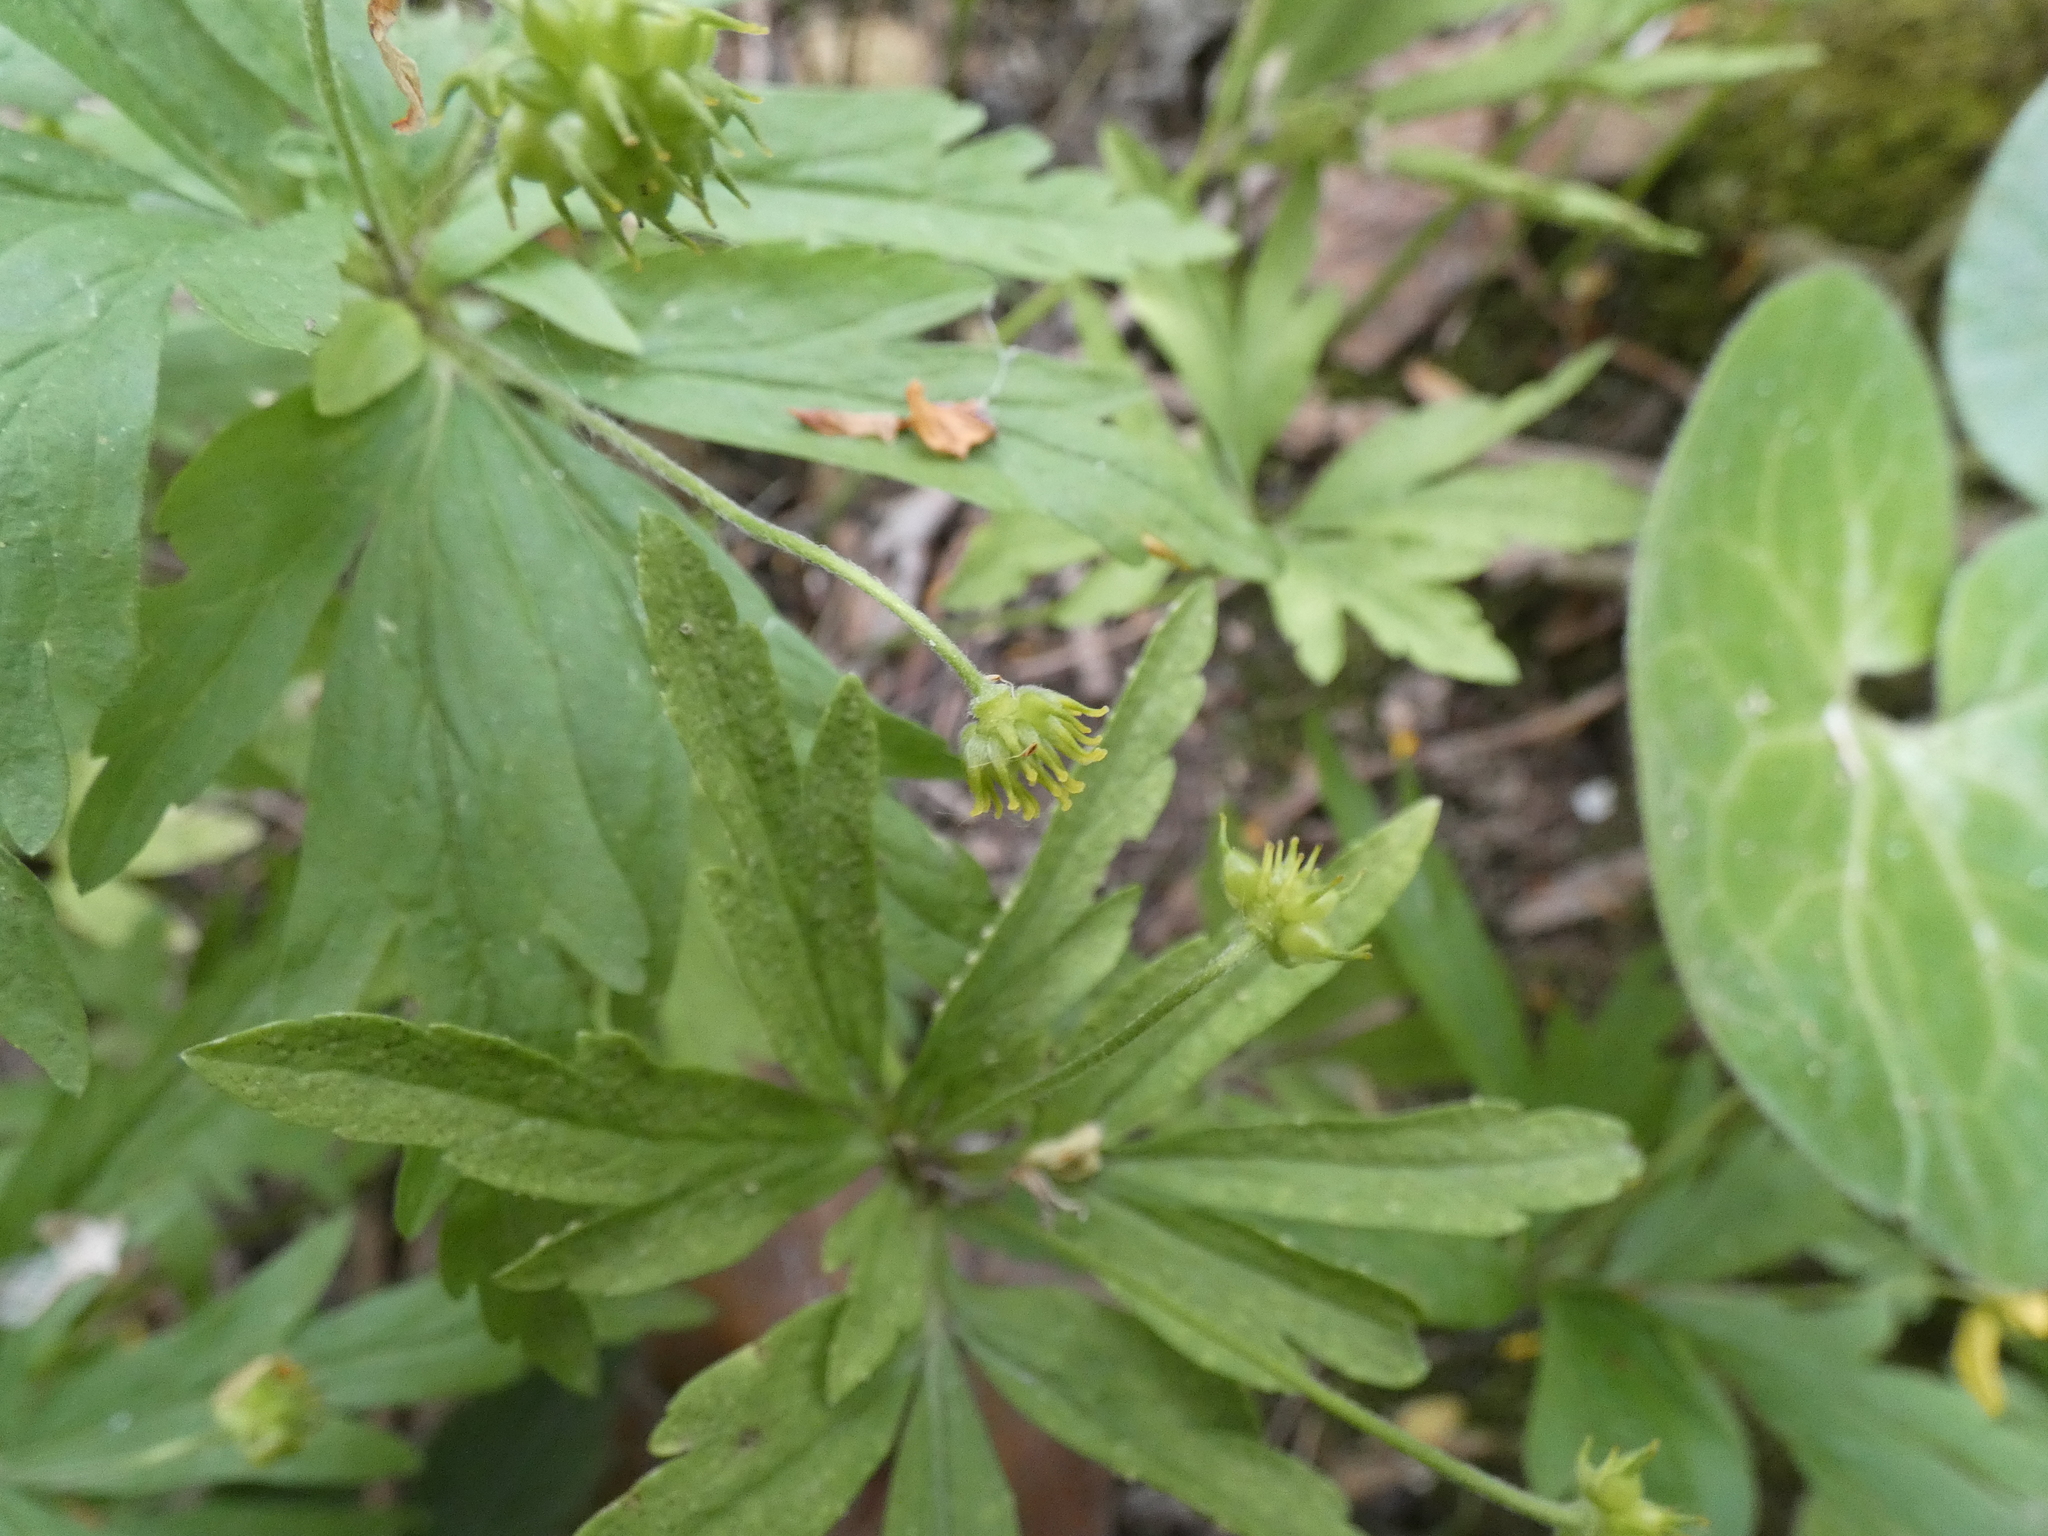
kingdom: Plantae
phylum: Tracheophyta
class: Magnoliopsida
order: Ranunculales
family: Ranunculaceae
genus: Anemone
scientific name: Anemone ranunculoides
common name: Yellow anemone
